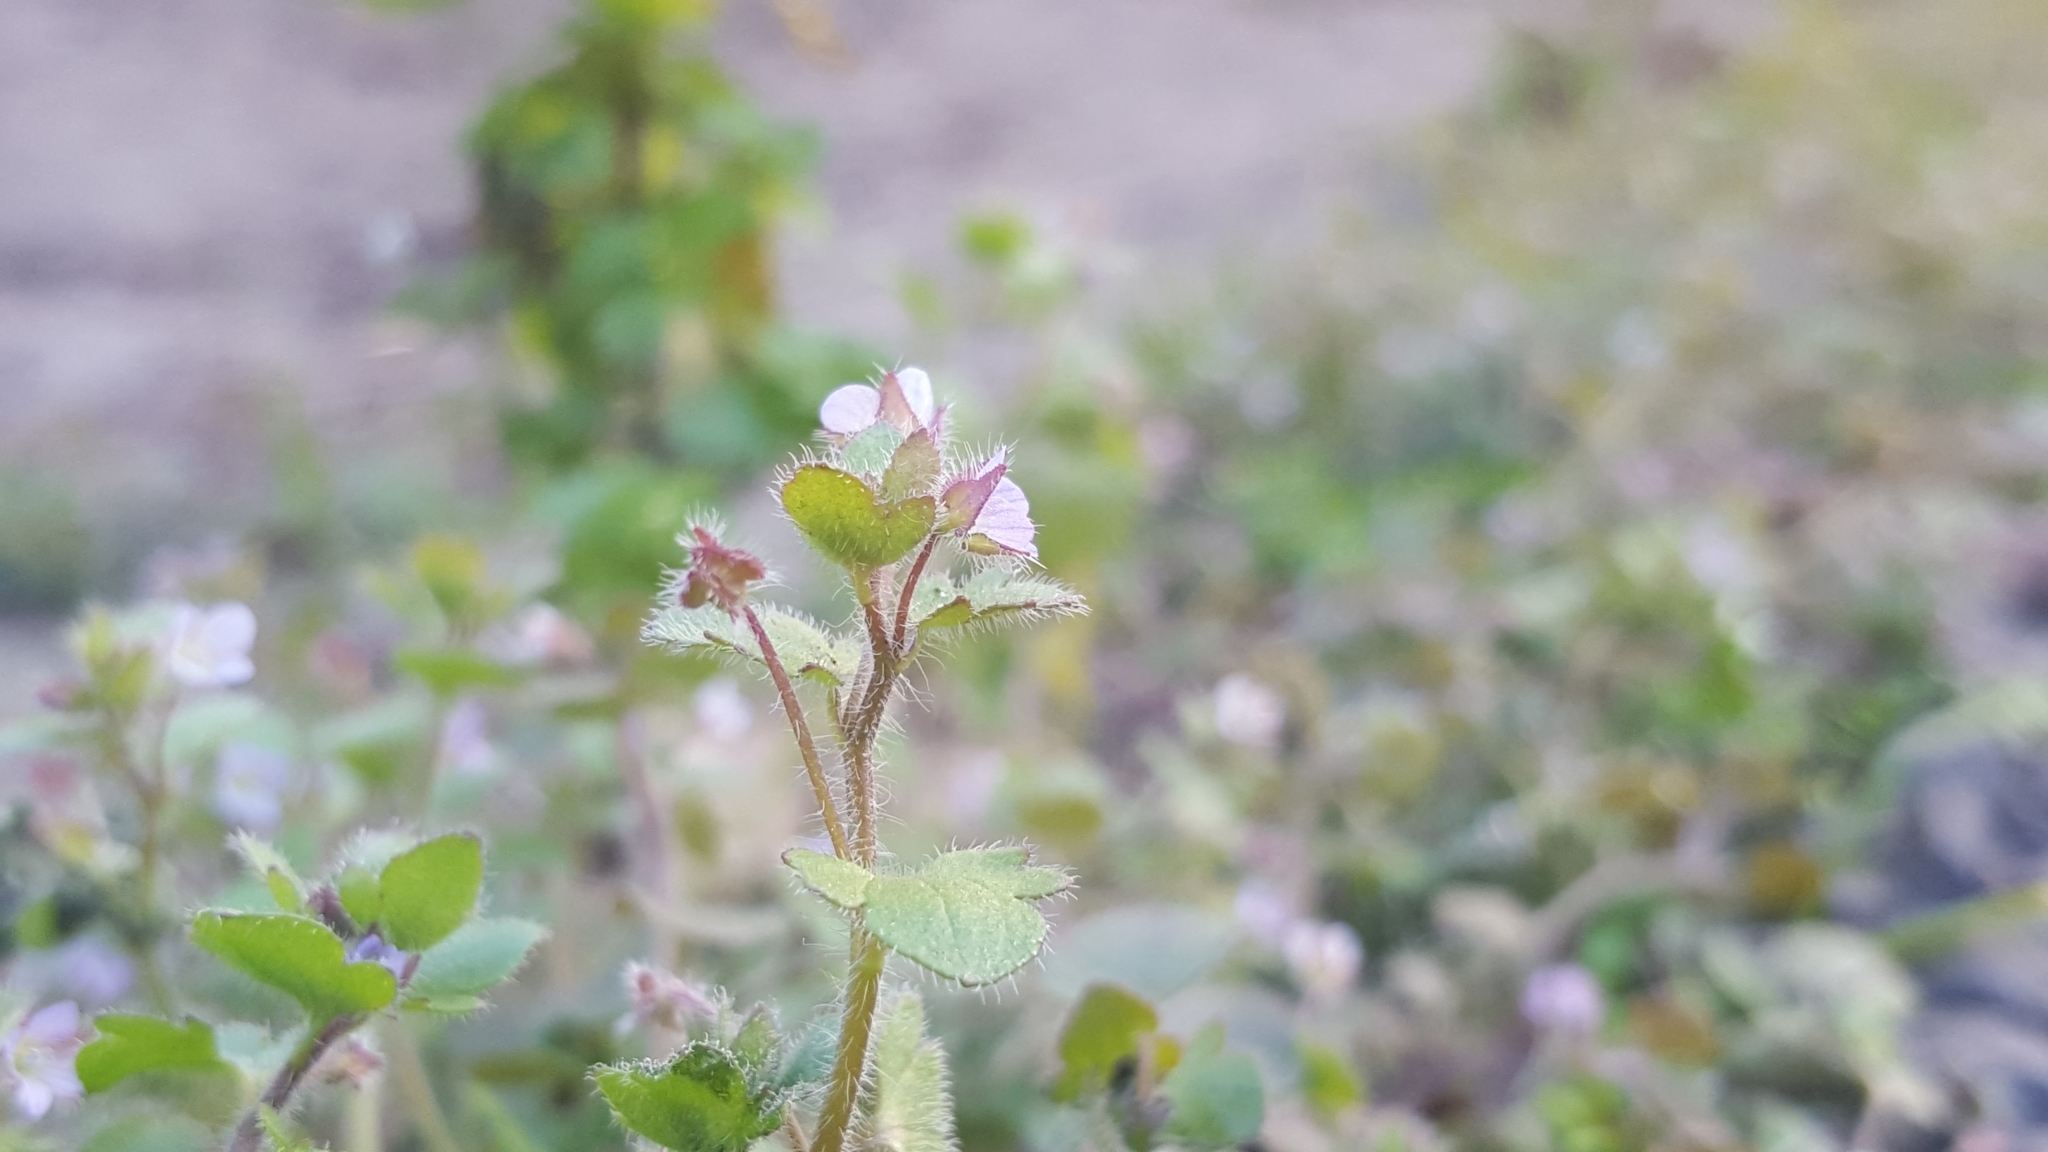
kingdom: Plantae
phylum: Tracheophyta
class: Magnoliopsida
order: Lamiales
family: Plantaginaceae
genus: Veronica
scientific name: Veronica sublobata
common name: False ivy-leaved speedwell
